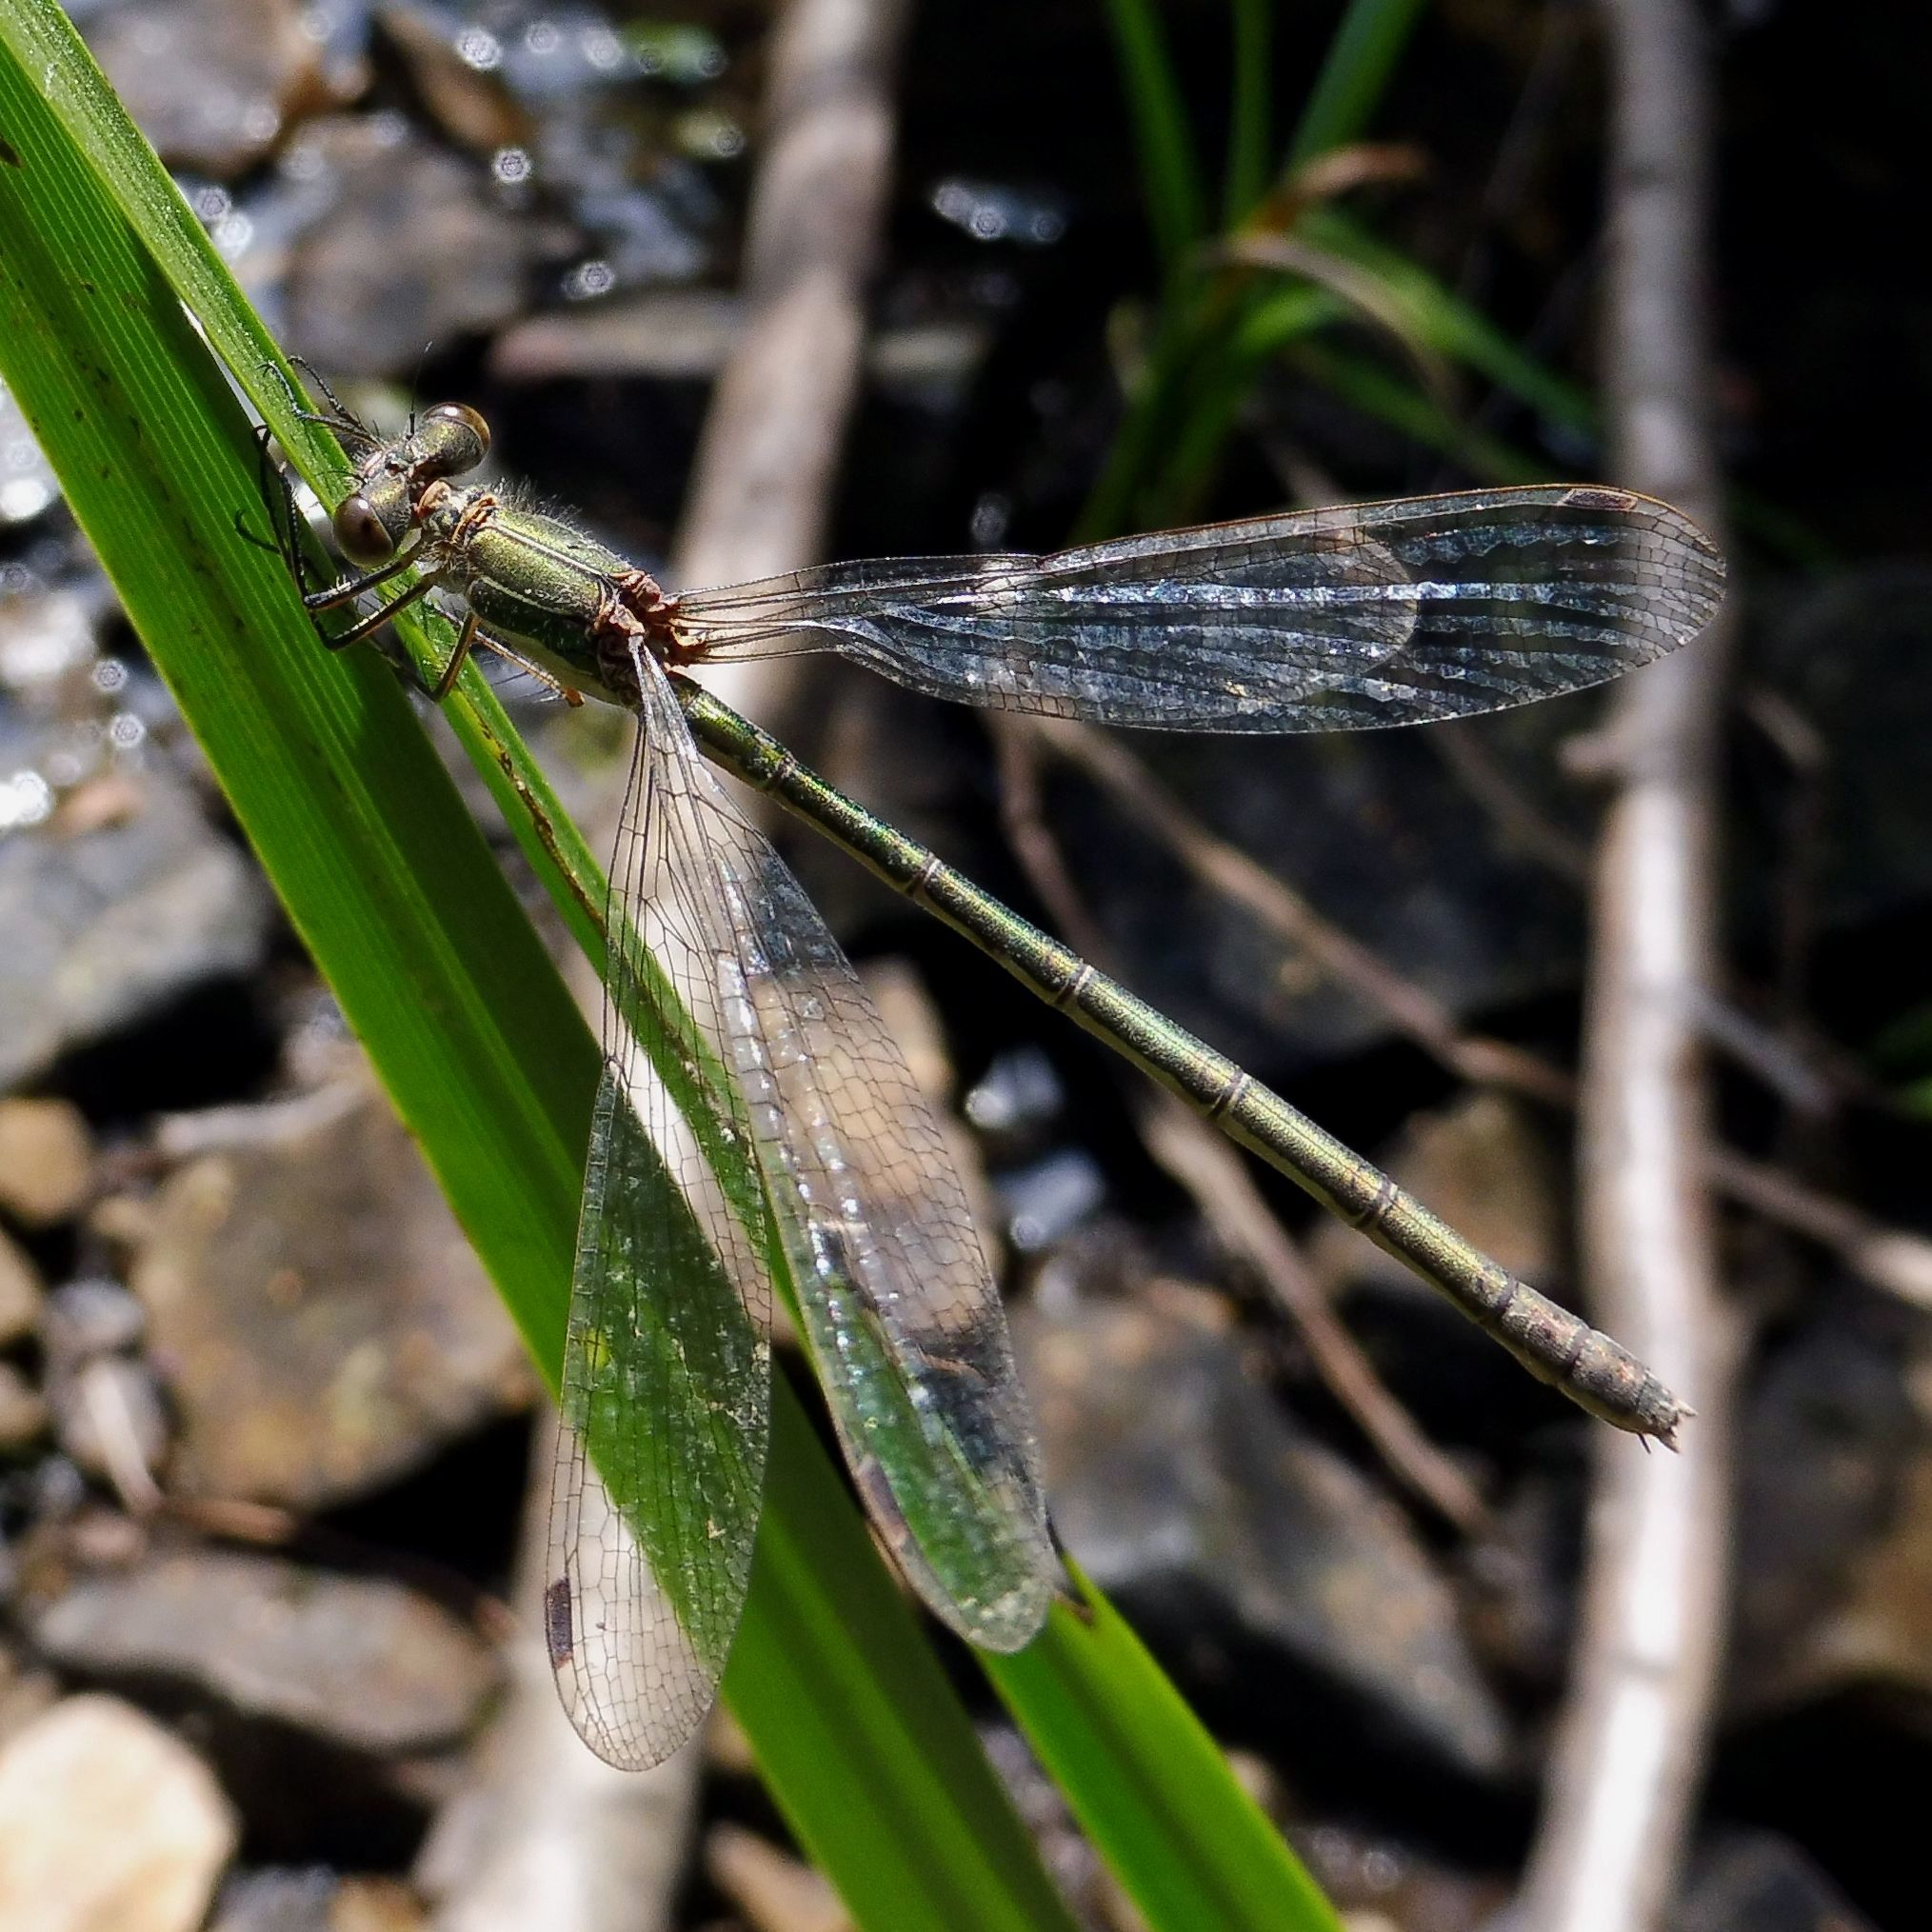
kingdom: Animalia
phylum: Arthropoda
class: Insecta
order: Odonata
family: Lestidae
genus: Lestes
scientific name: Lestes sponsa
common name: Common spreadwing
